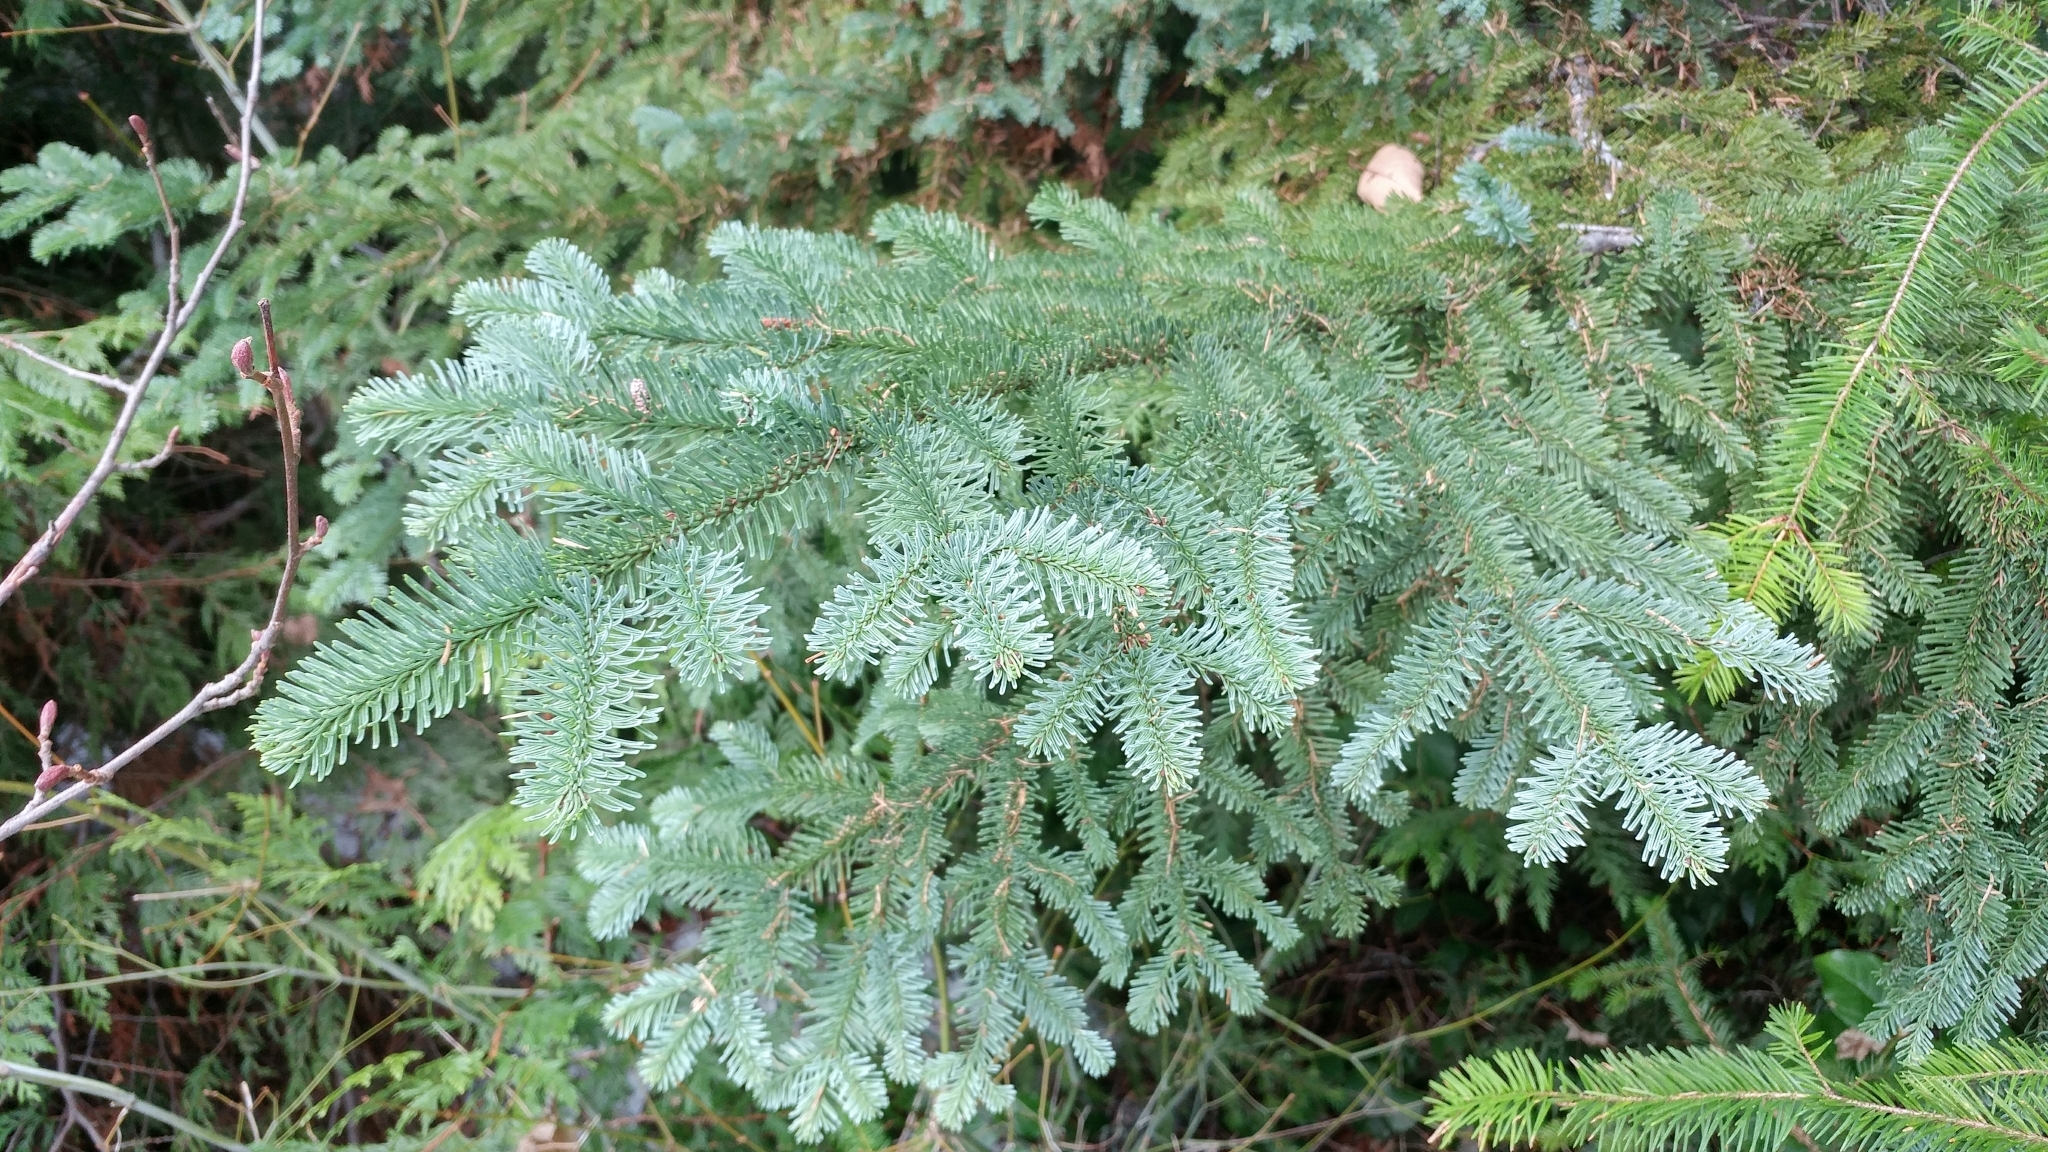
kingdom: Plantae
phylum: Tracheophyta
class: Pinopsida
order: Pinales
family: Pinaceae
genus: Abies
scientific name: Abies procera
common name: Noble fir
